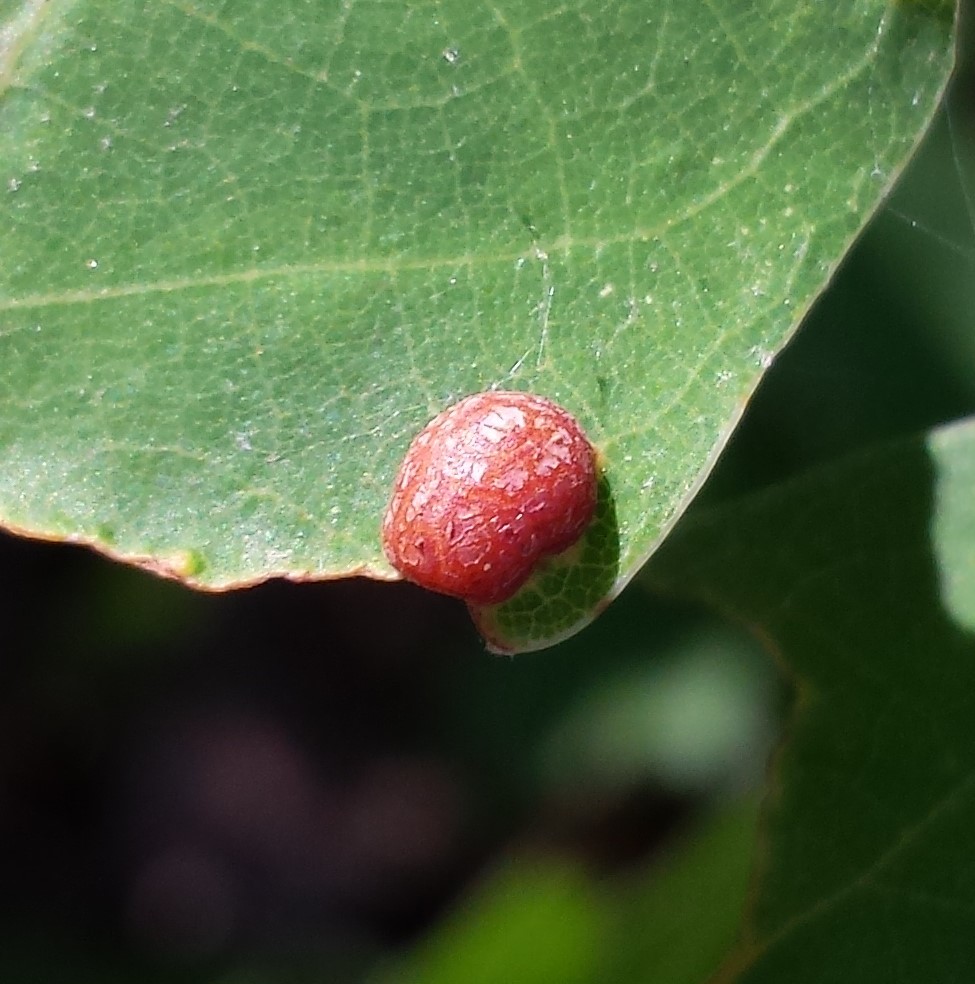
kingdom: Animalia
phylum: Arthropoda
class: Insecta
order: Diptera
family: Cecidomyiidae
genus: Polystepha
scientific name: Polystepha pilulae
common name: Oak leaf gall midge
